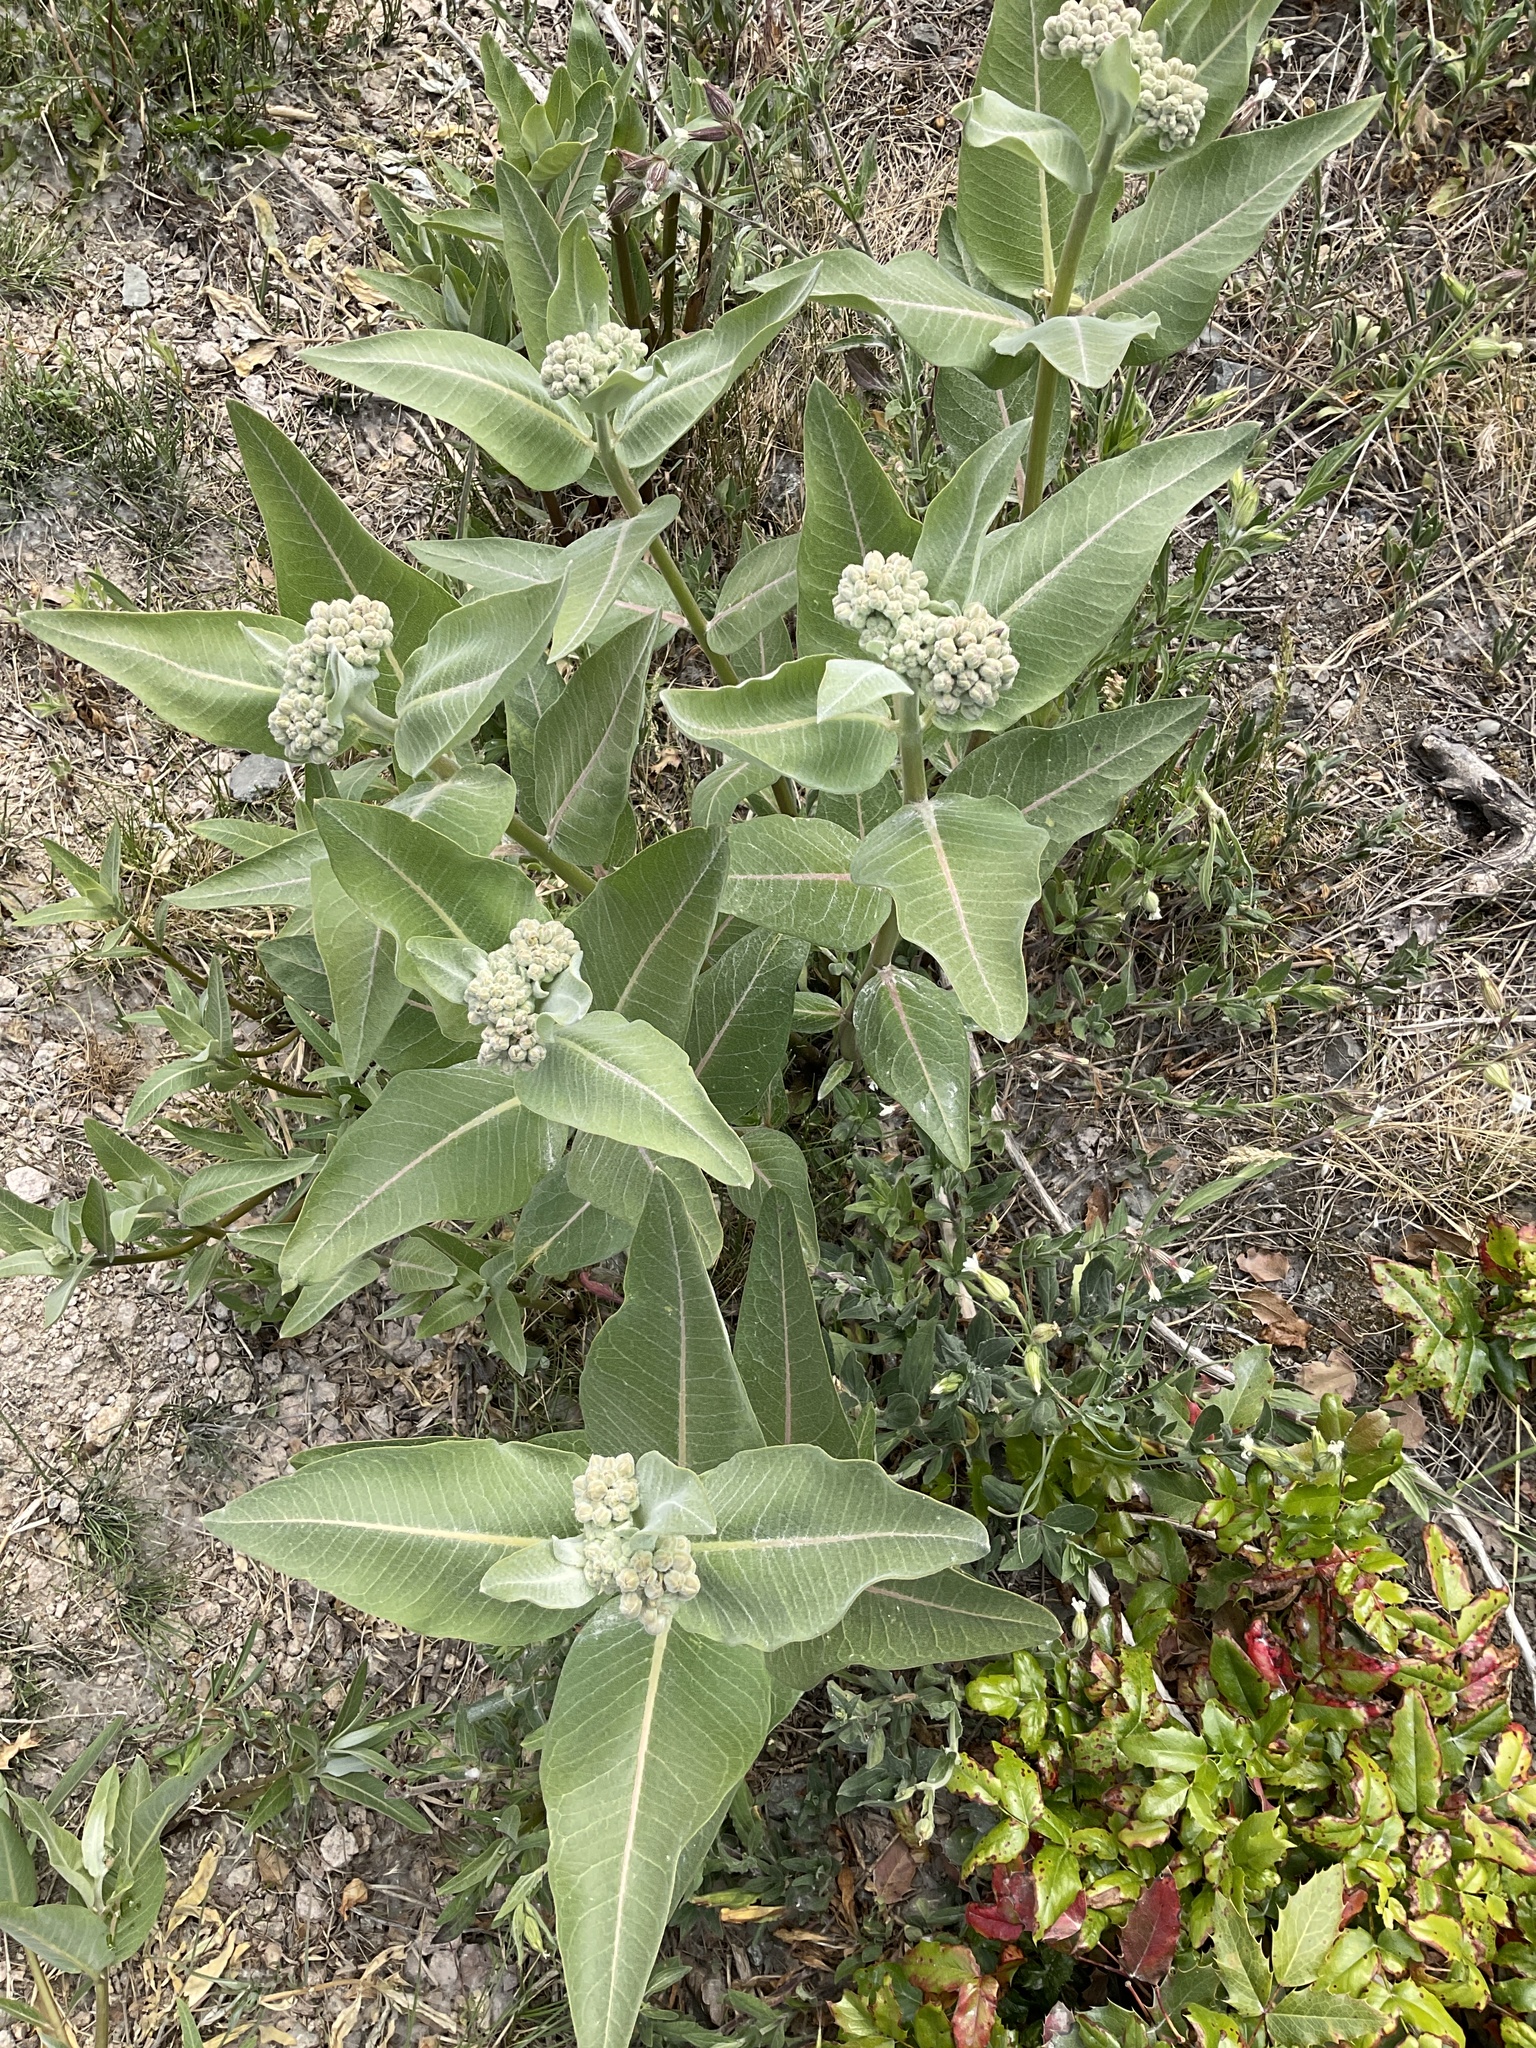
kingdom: Plantae
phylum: Tracheophyta
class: Magnoliopsida
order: Gentianales
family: Apocynaceae
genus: Asclepias
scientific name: Asclepias speciosa
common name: Showy milkweed
